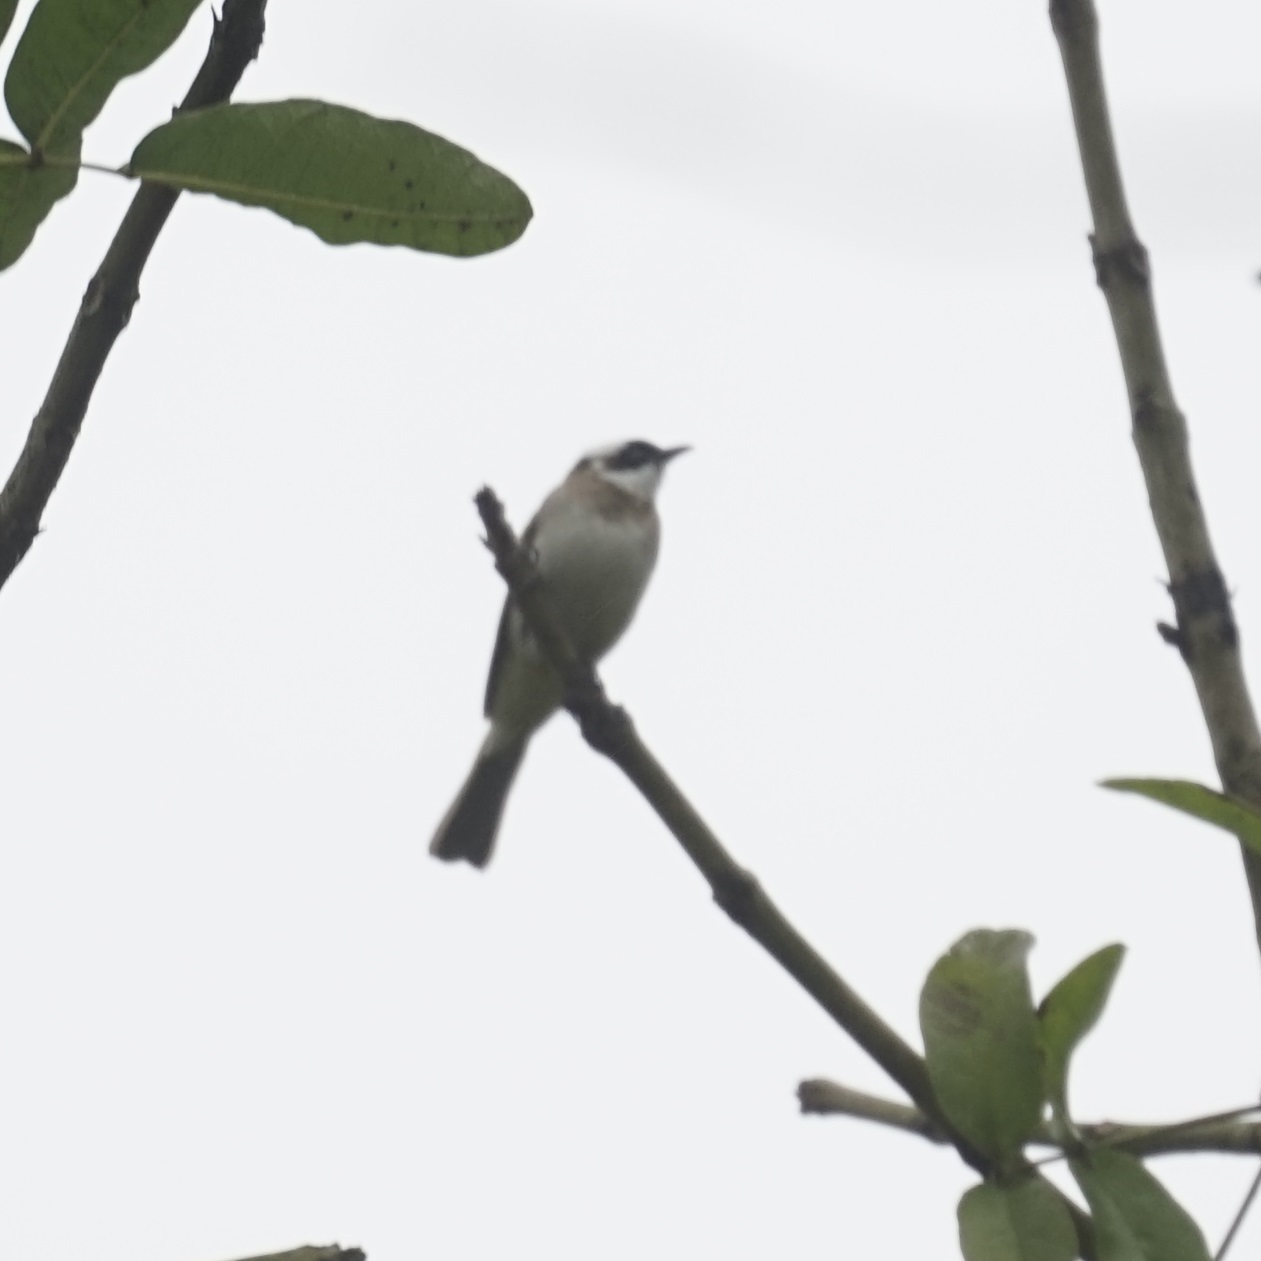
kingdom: Animalia
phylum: Chordata
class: Aves
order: Passeriformes
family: Pycnonotidae
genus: Pycnonotus
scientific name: Pycnonotus sinensis
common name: Light-vented bulbul
